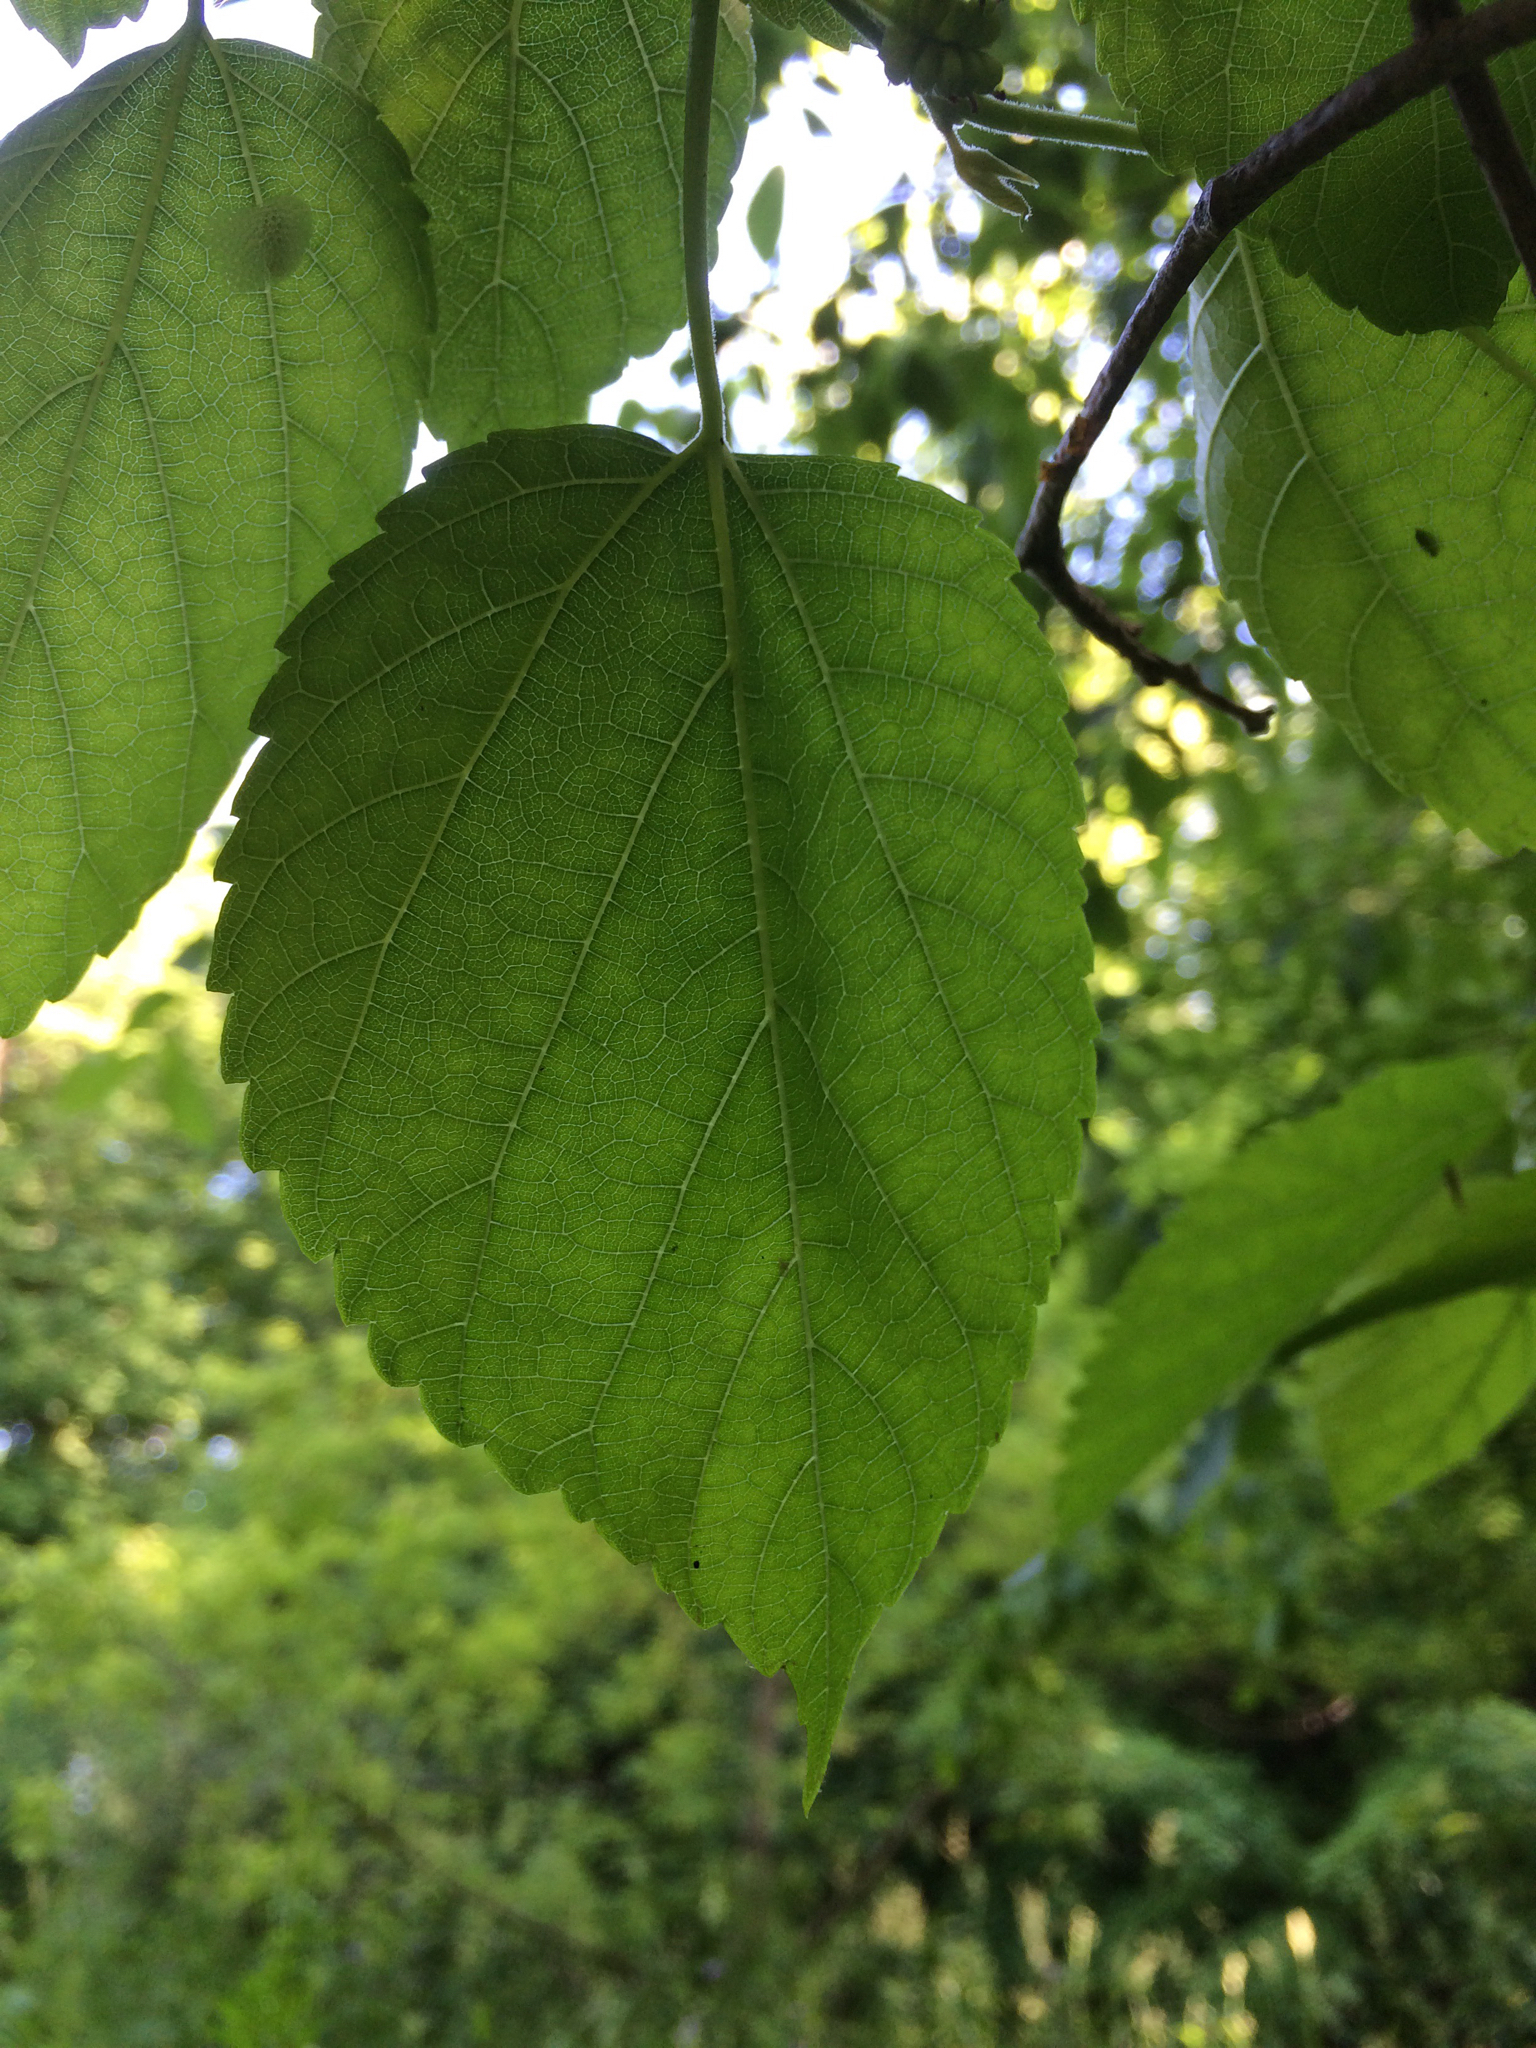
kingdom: Plantae
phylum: Tracheophyta
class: Magnoliopsida
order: Rosales
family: Moraceae
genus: Morus
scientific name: Morus alba
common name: White mulberry
